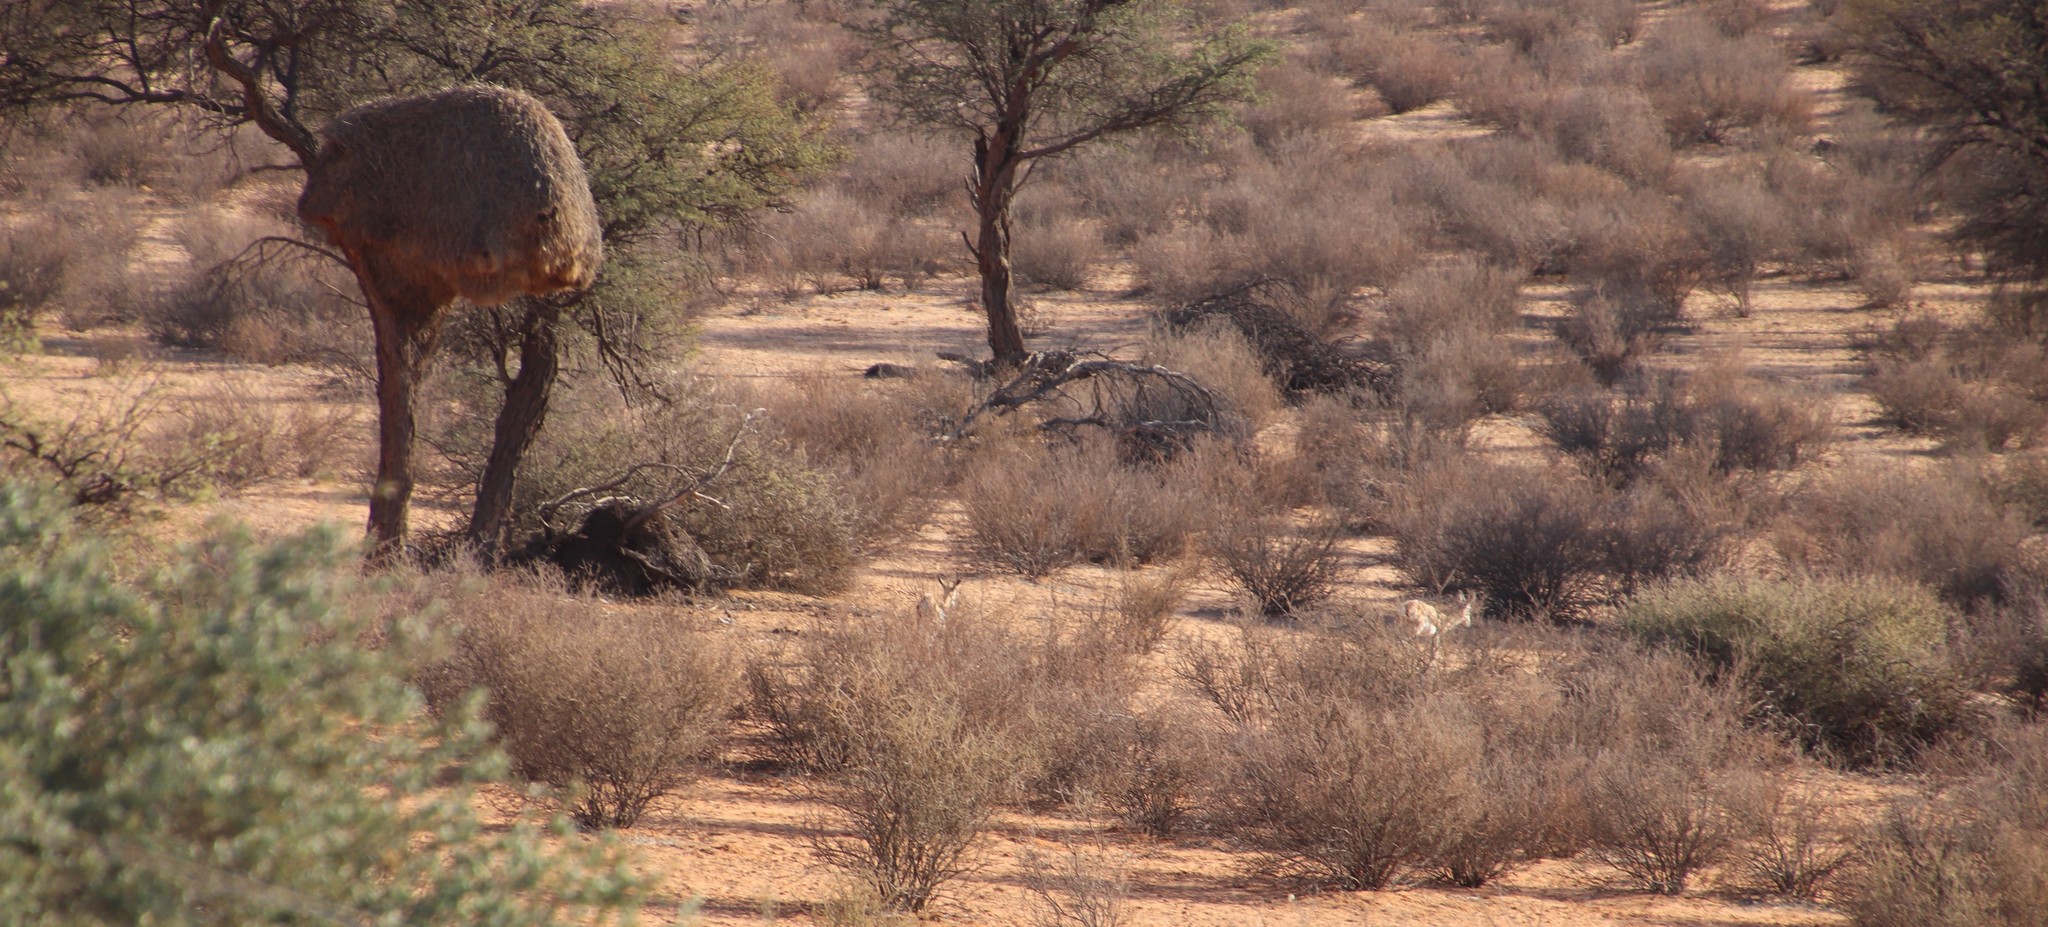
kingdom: Plantae
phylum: Tracheophyta
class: Magnoliopsida
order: Lamiales
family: Bignoniaceae
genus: Rhigozum
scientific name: Rhigozum trichotomum
